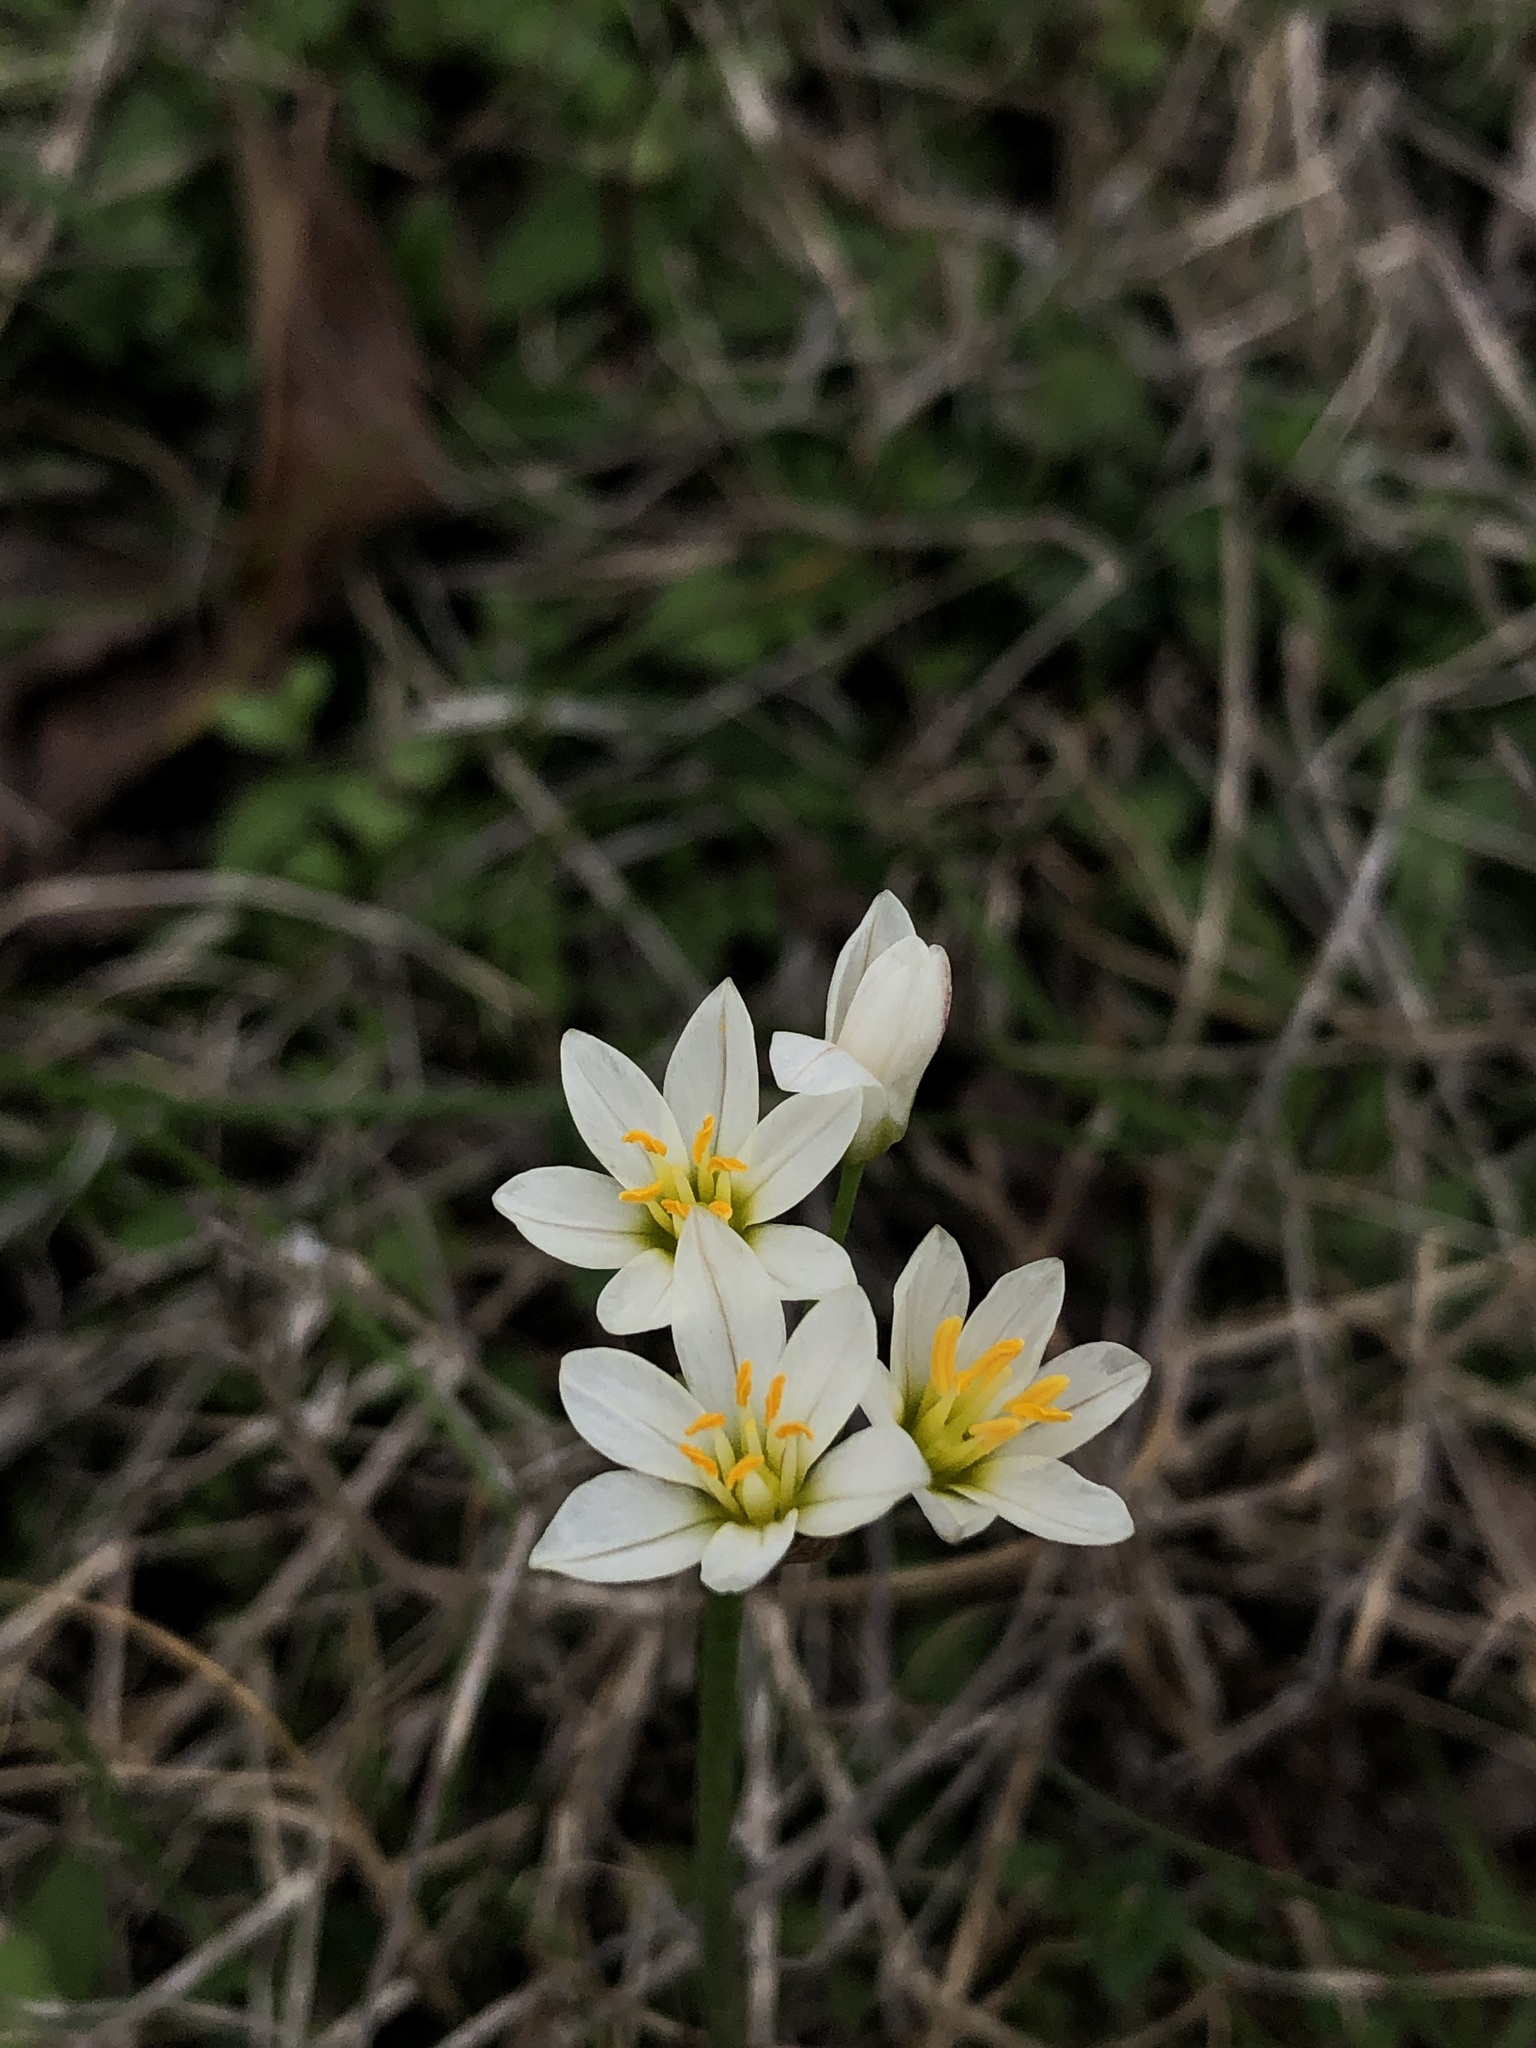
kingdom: Plantae
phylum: Tracheophyta
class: Liliopsida
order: Asparagales
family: Amaryllidaceae
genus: Nothoscordum
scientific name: Nothoscordum bivalve
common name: Crow-poison
